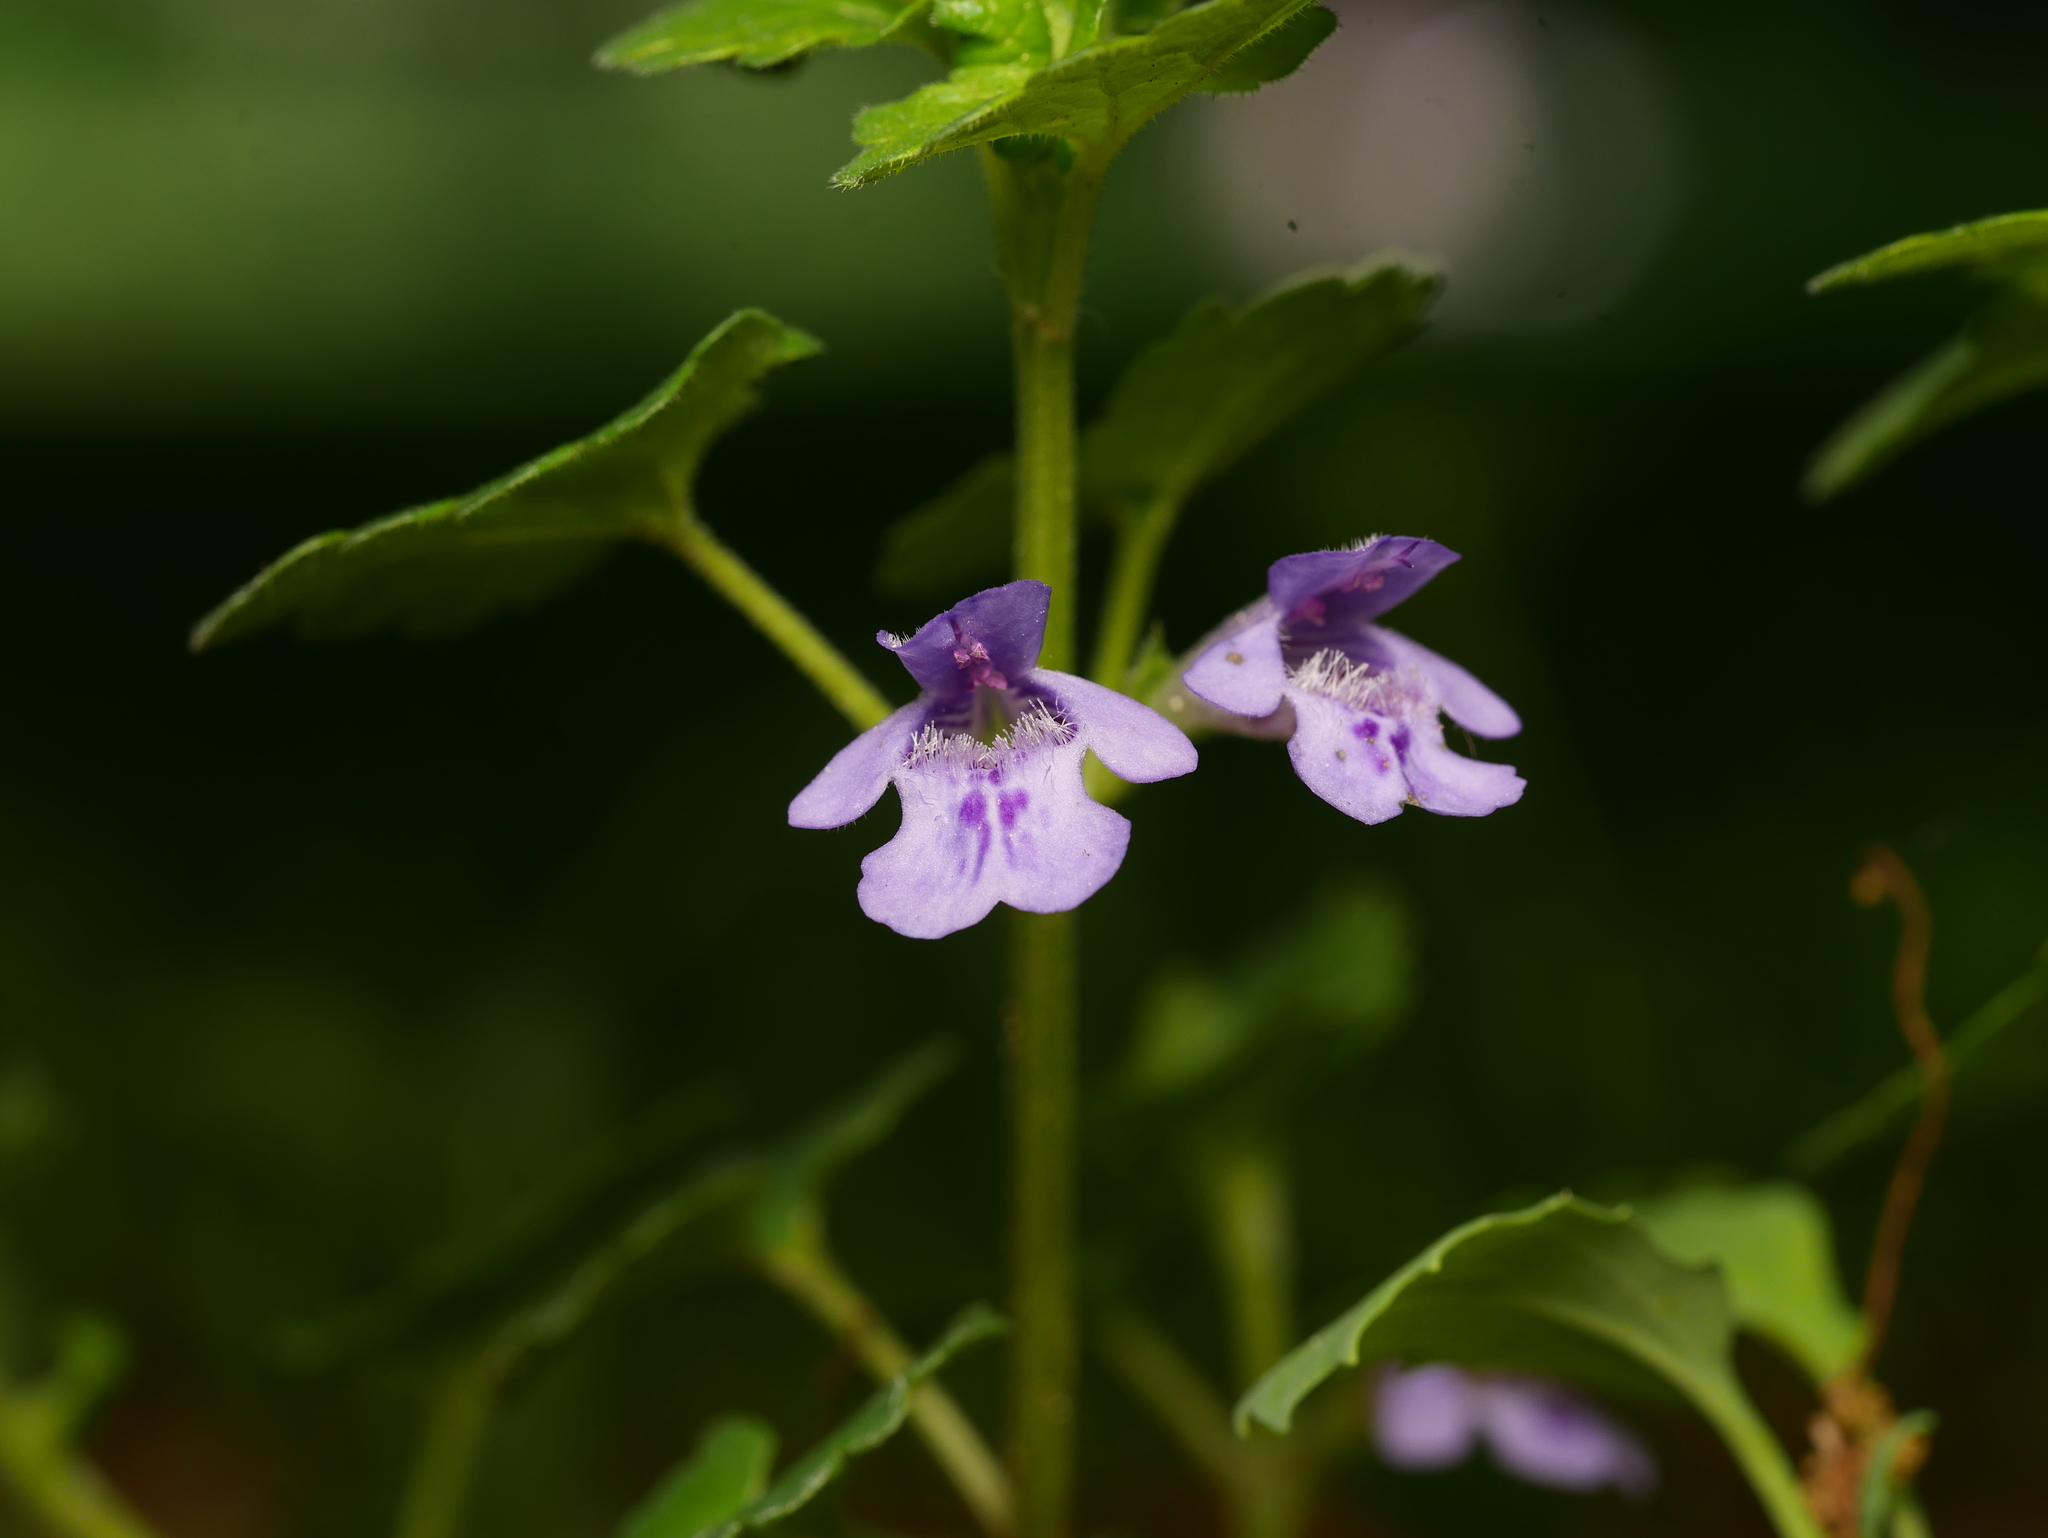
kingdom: Plantae
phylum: Tracheophyta
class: Magnoliopsida
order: Lamiales
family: Lamiaceae
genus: Glechoma
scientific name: Glechoma hederacea
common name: Ground ivy
